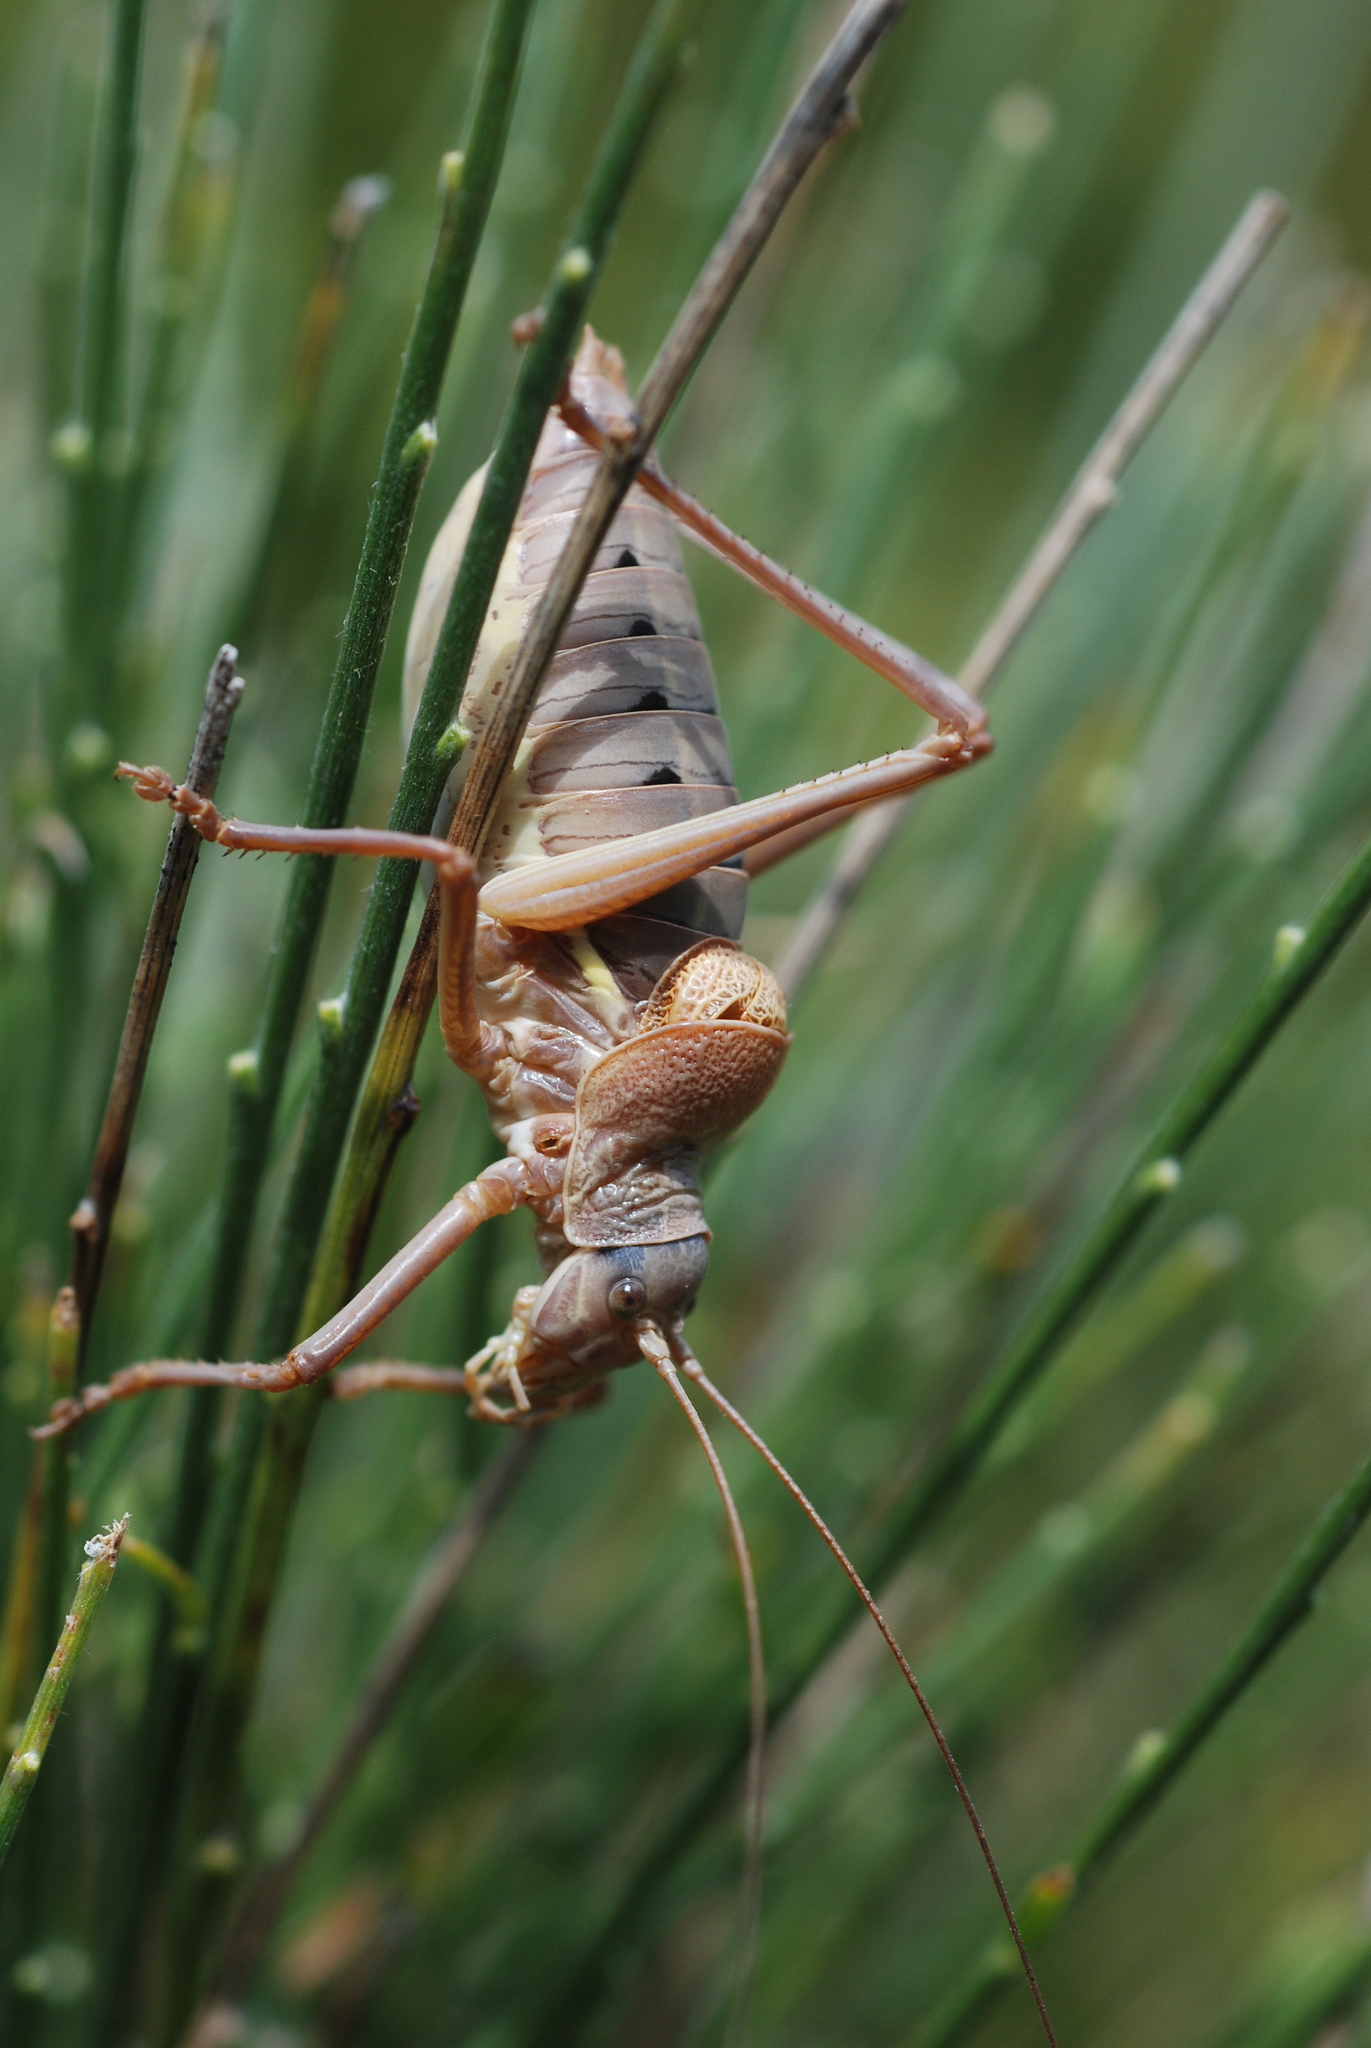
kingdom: Animalia
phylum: Arthropoda
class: Insecta
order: Orthoptera
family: Tettigoniidae
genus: Ephippiger
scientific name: Ephippiger terrestris
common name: Alpine saddle-backed bush-cricket
